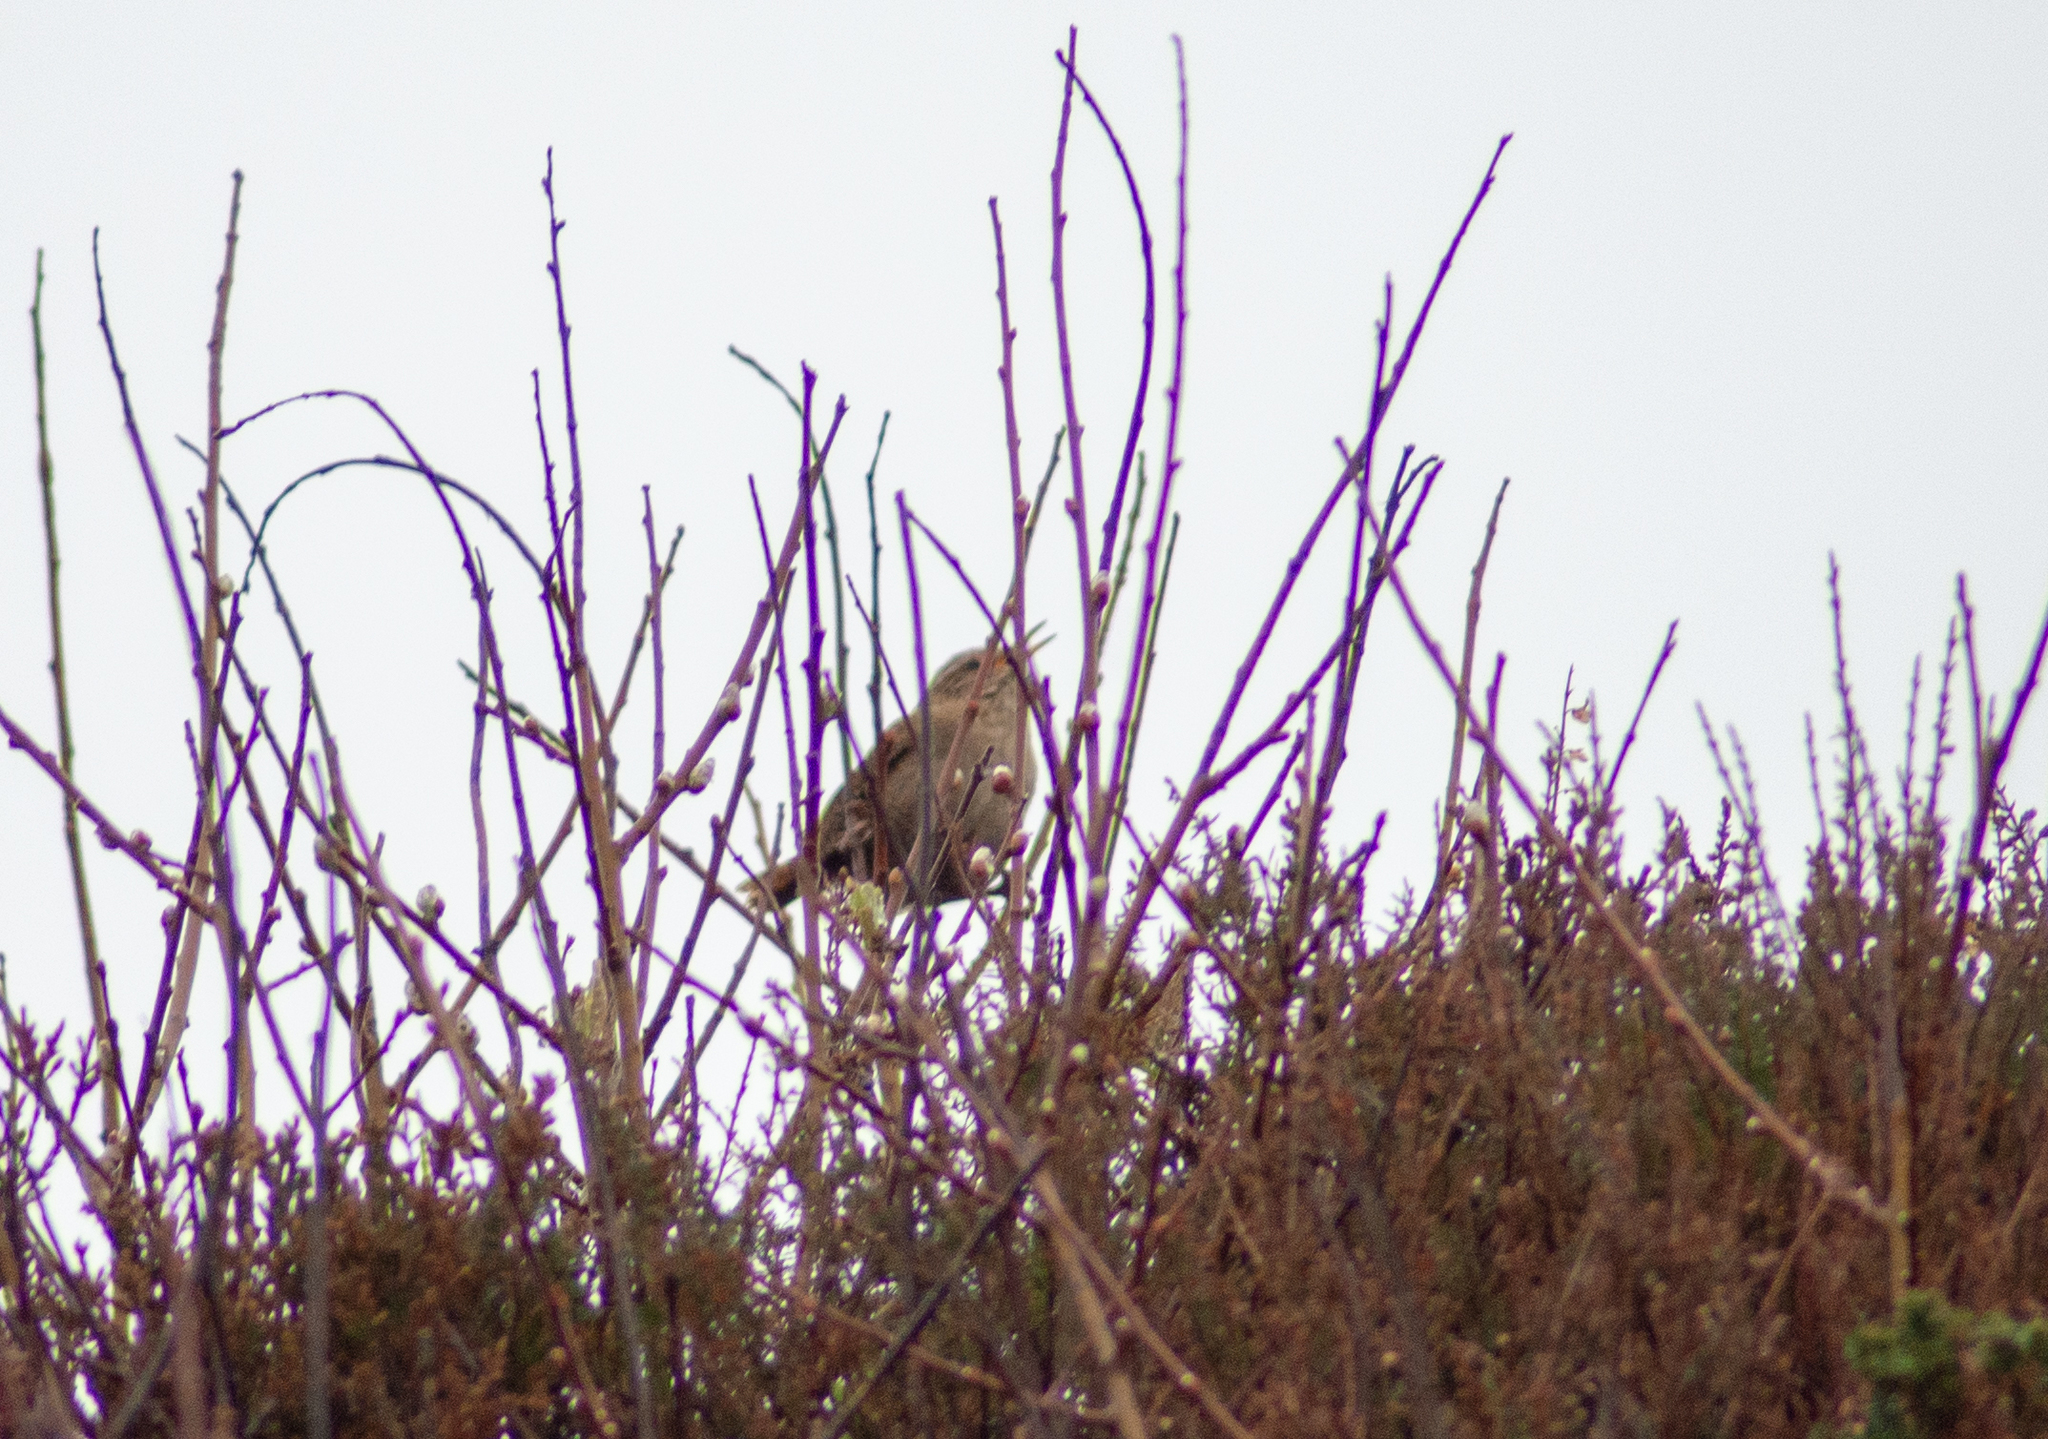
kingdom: Animalia
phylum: Chordata
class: Aves
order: Passeriformes
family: Troglodytidae
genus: Troglodytes
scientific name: Troglodytes troglodytes
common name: Eurasian wren
